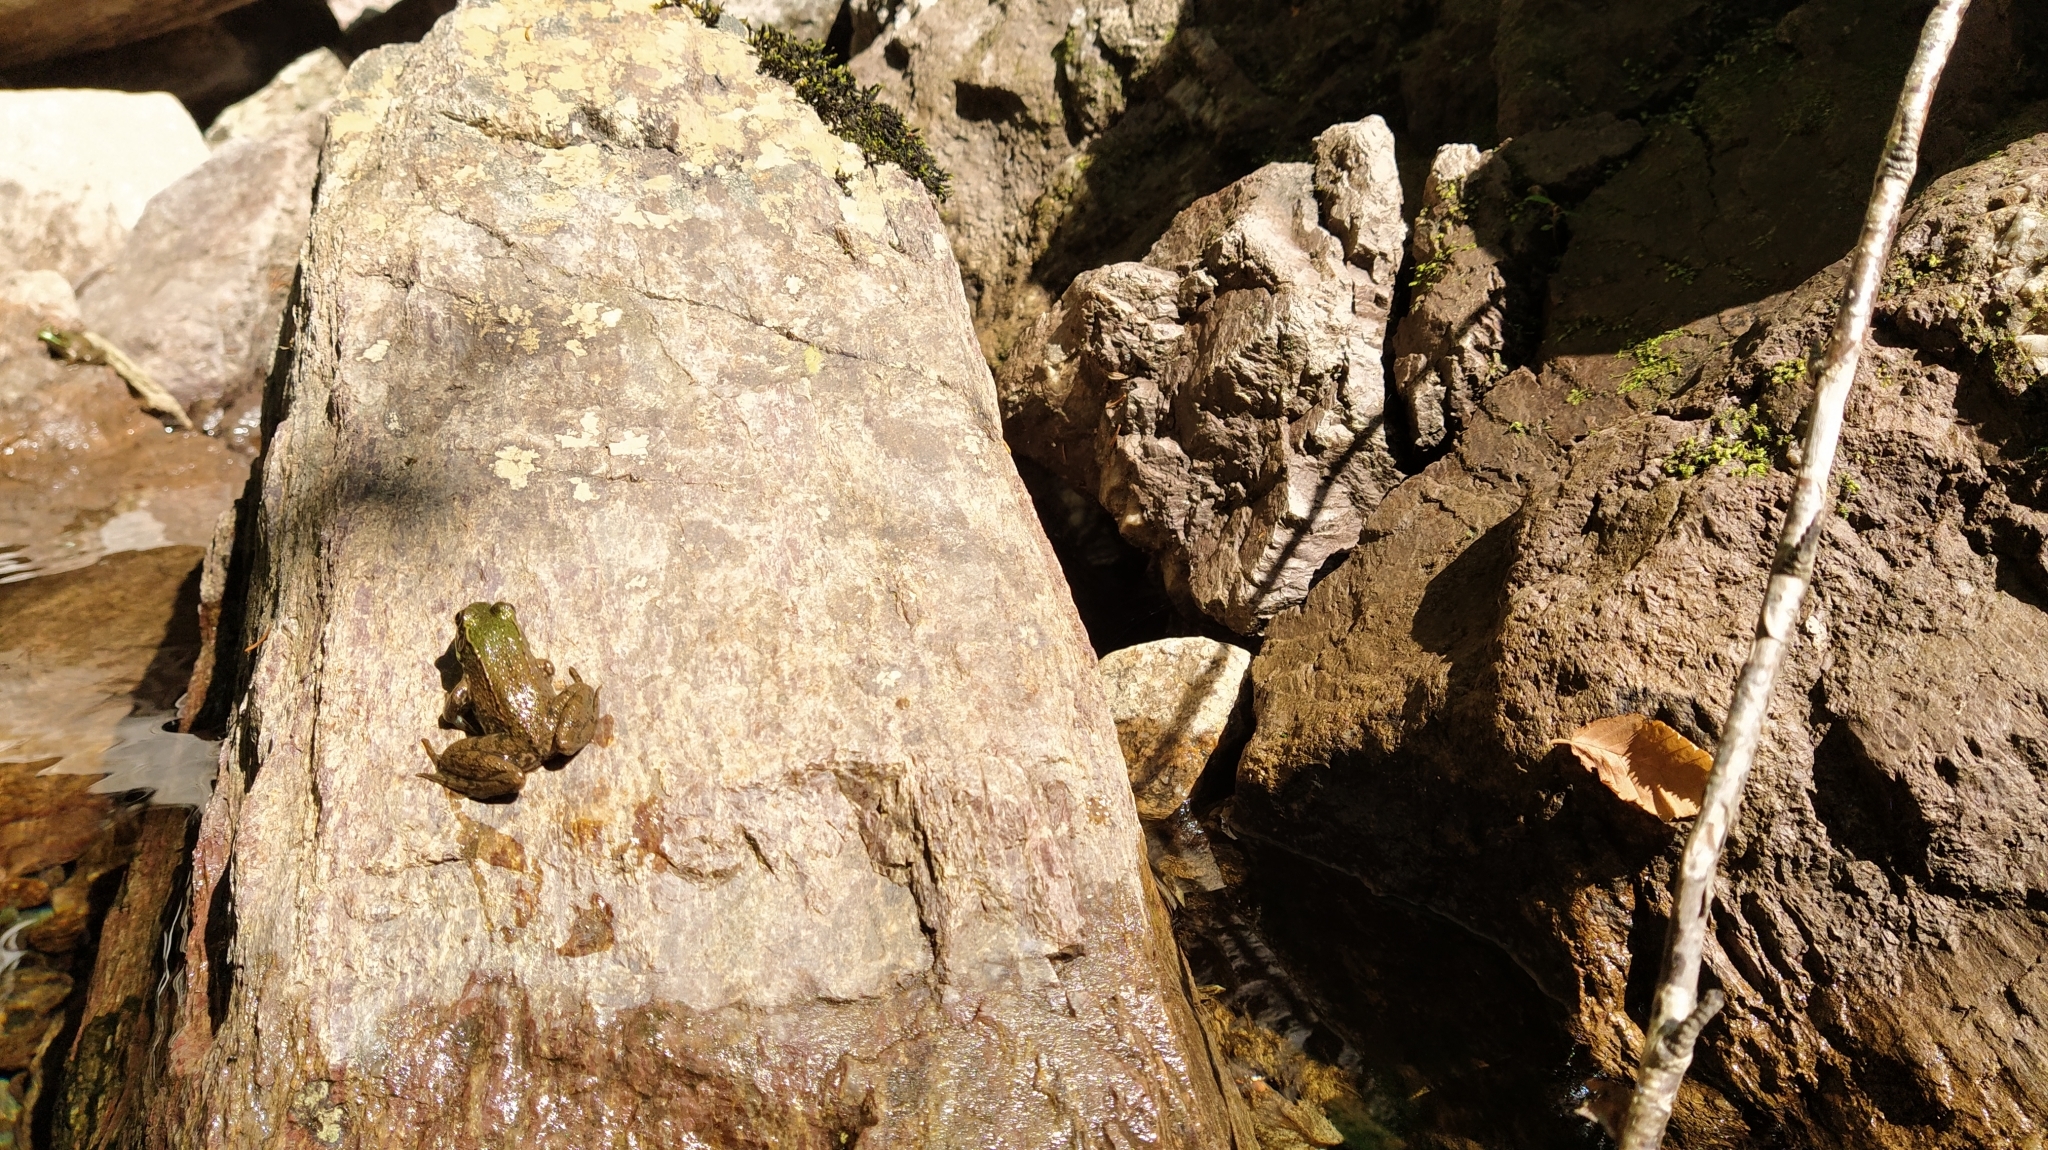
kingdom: Animalia
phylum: Chordata
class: Amphibia
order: Anura
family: Ranidae
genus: Lithobates
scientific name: Lithobates clamitans
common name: Green frog
